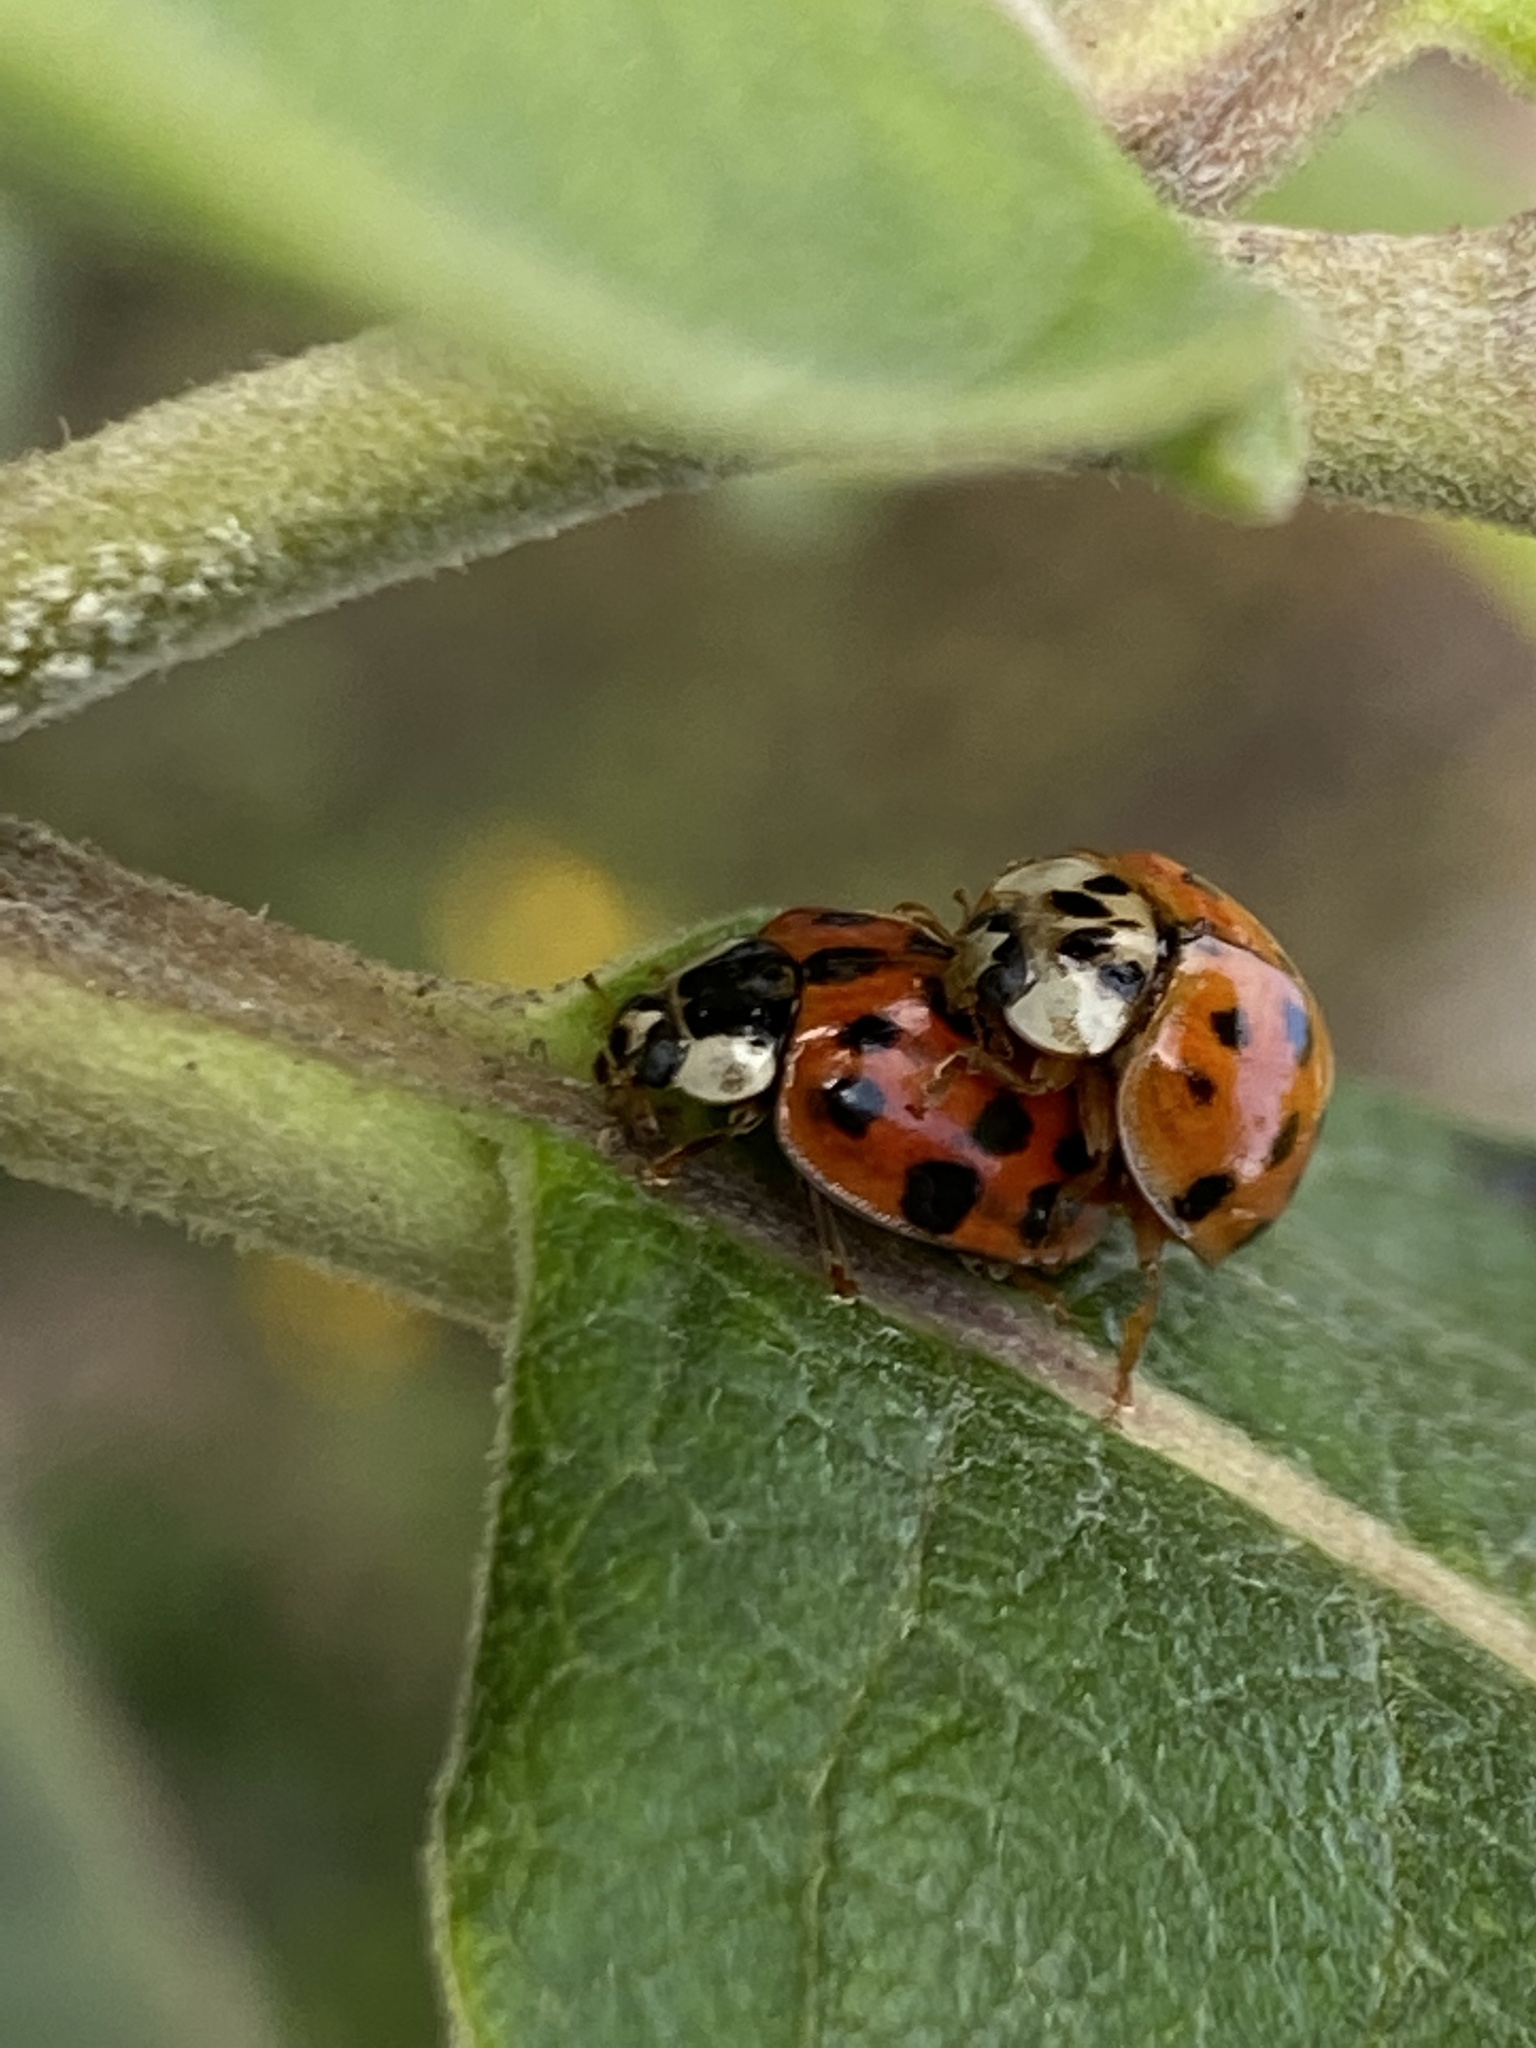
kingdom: Animalia
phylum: Arthropoda
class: Insecta
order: Coleoptera
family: Coccinellidae
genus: Harmonia
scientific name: Harmonia axyridis
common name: Harlequin ladybird
